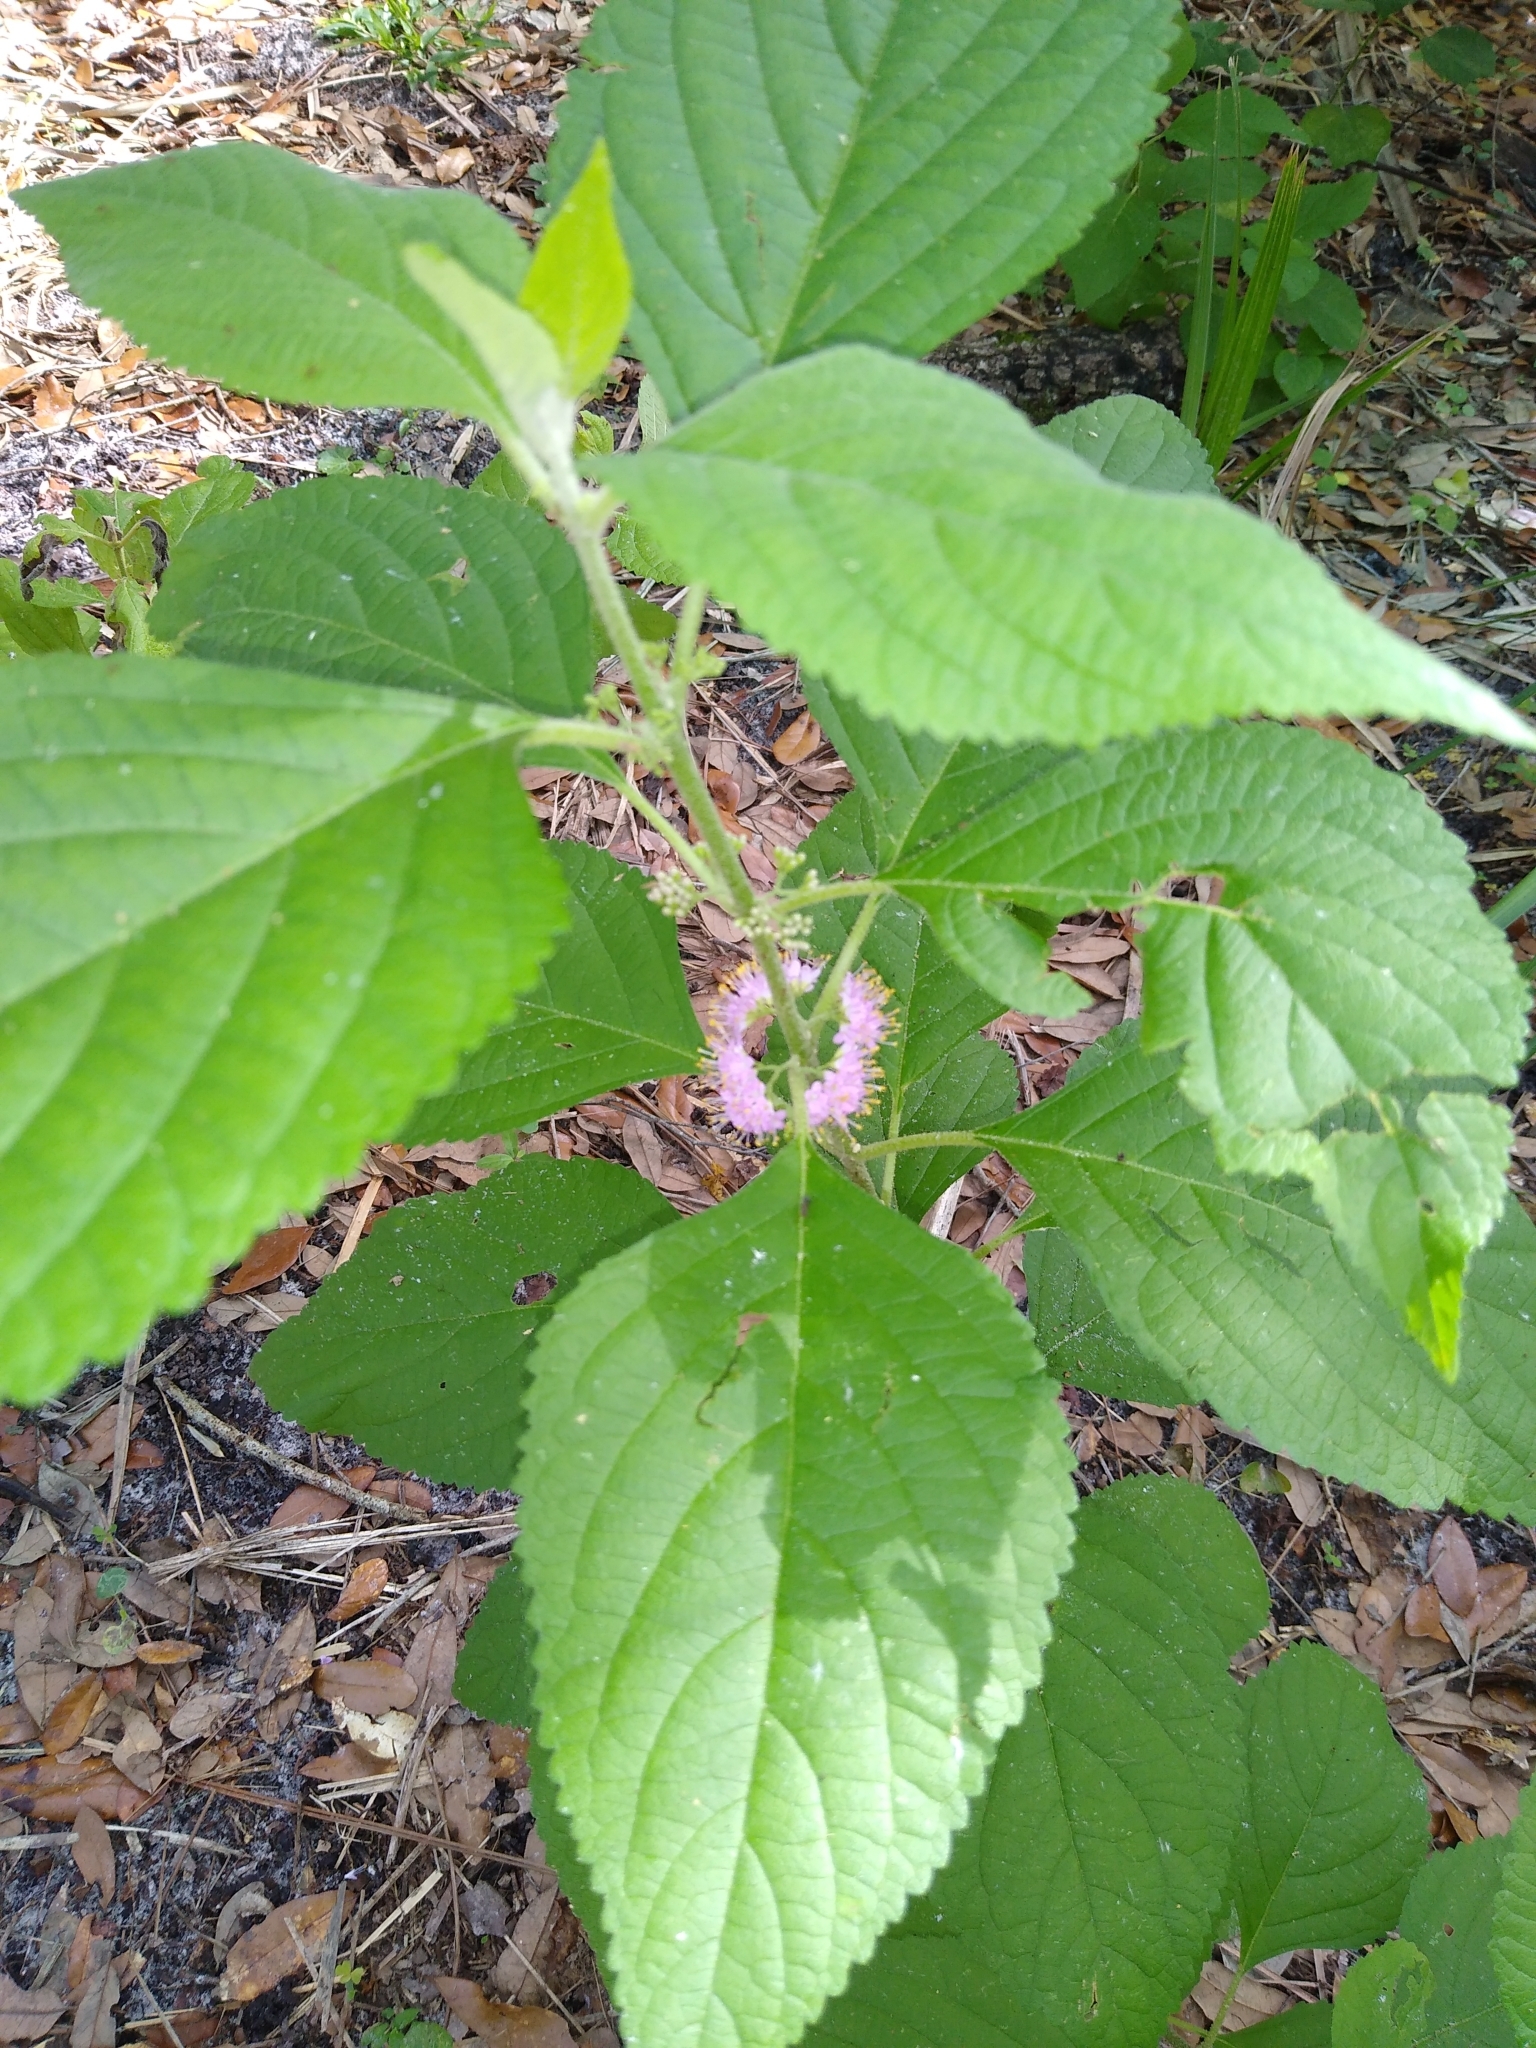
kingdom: Plantae
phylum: Tracheophyta
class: Magnoliopsida
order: Lamiales
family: Lamiaceae
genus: Callicarpa
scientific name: Callicarpa americana
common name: American beautyberry
